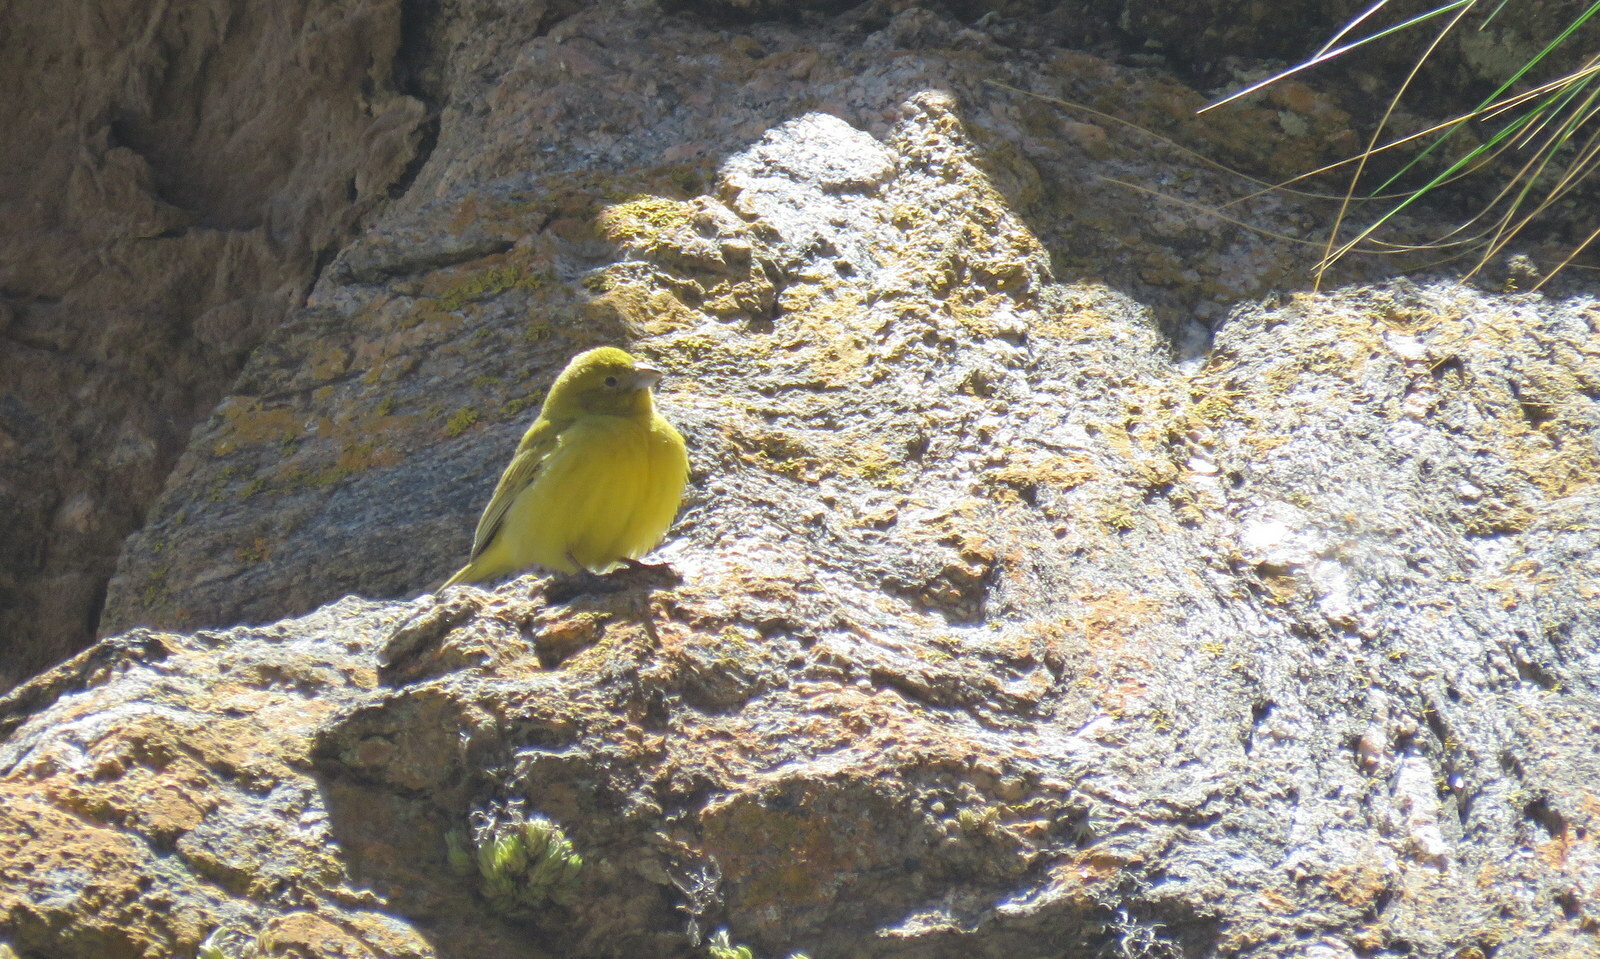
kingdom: Animalia
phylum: Chordata
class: Aves
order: Passeriformes
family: Thraupidae
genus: Sicalis
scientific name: Sicalis mendozae
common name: Monte yellow-finch
